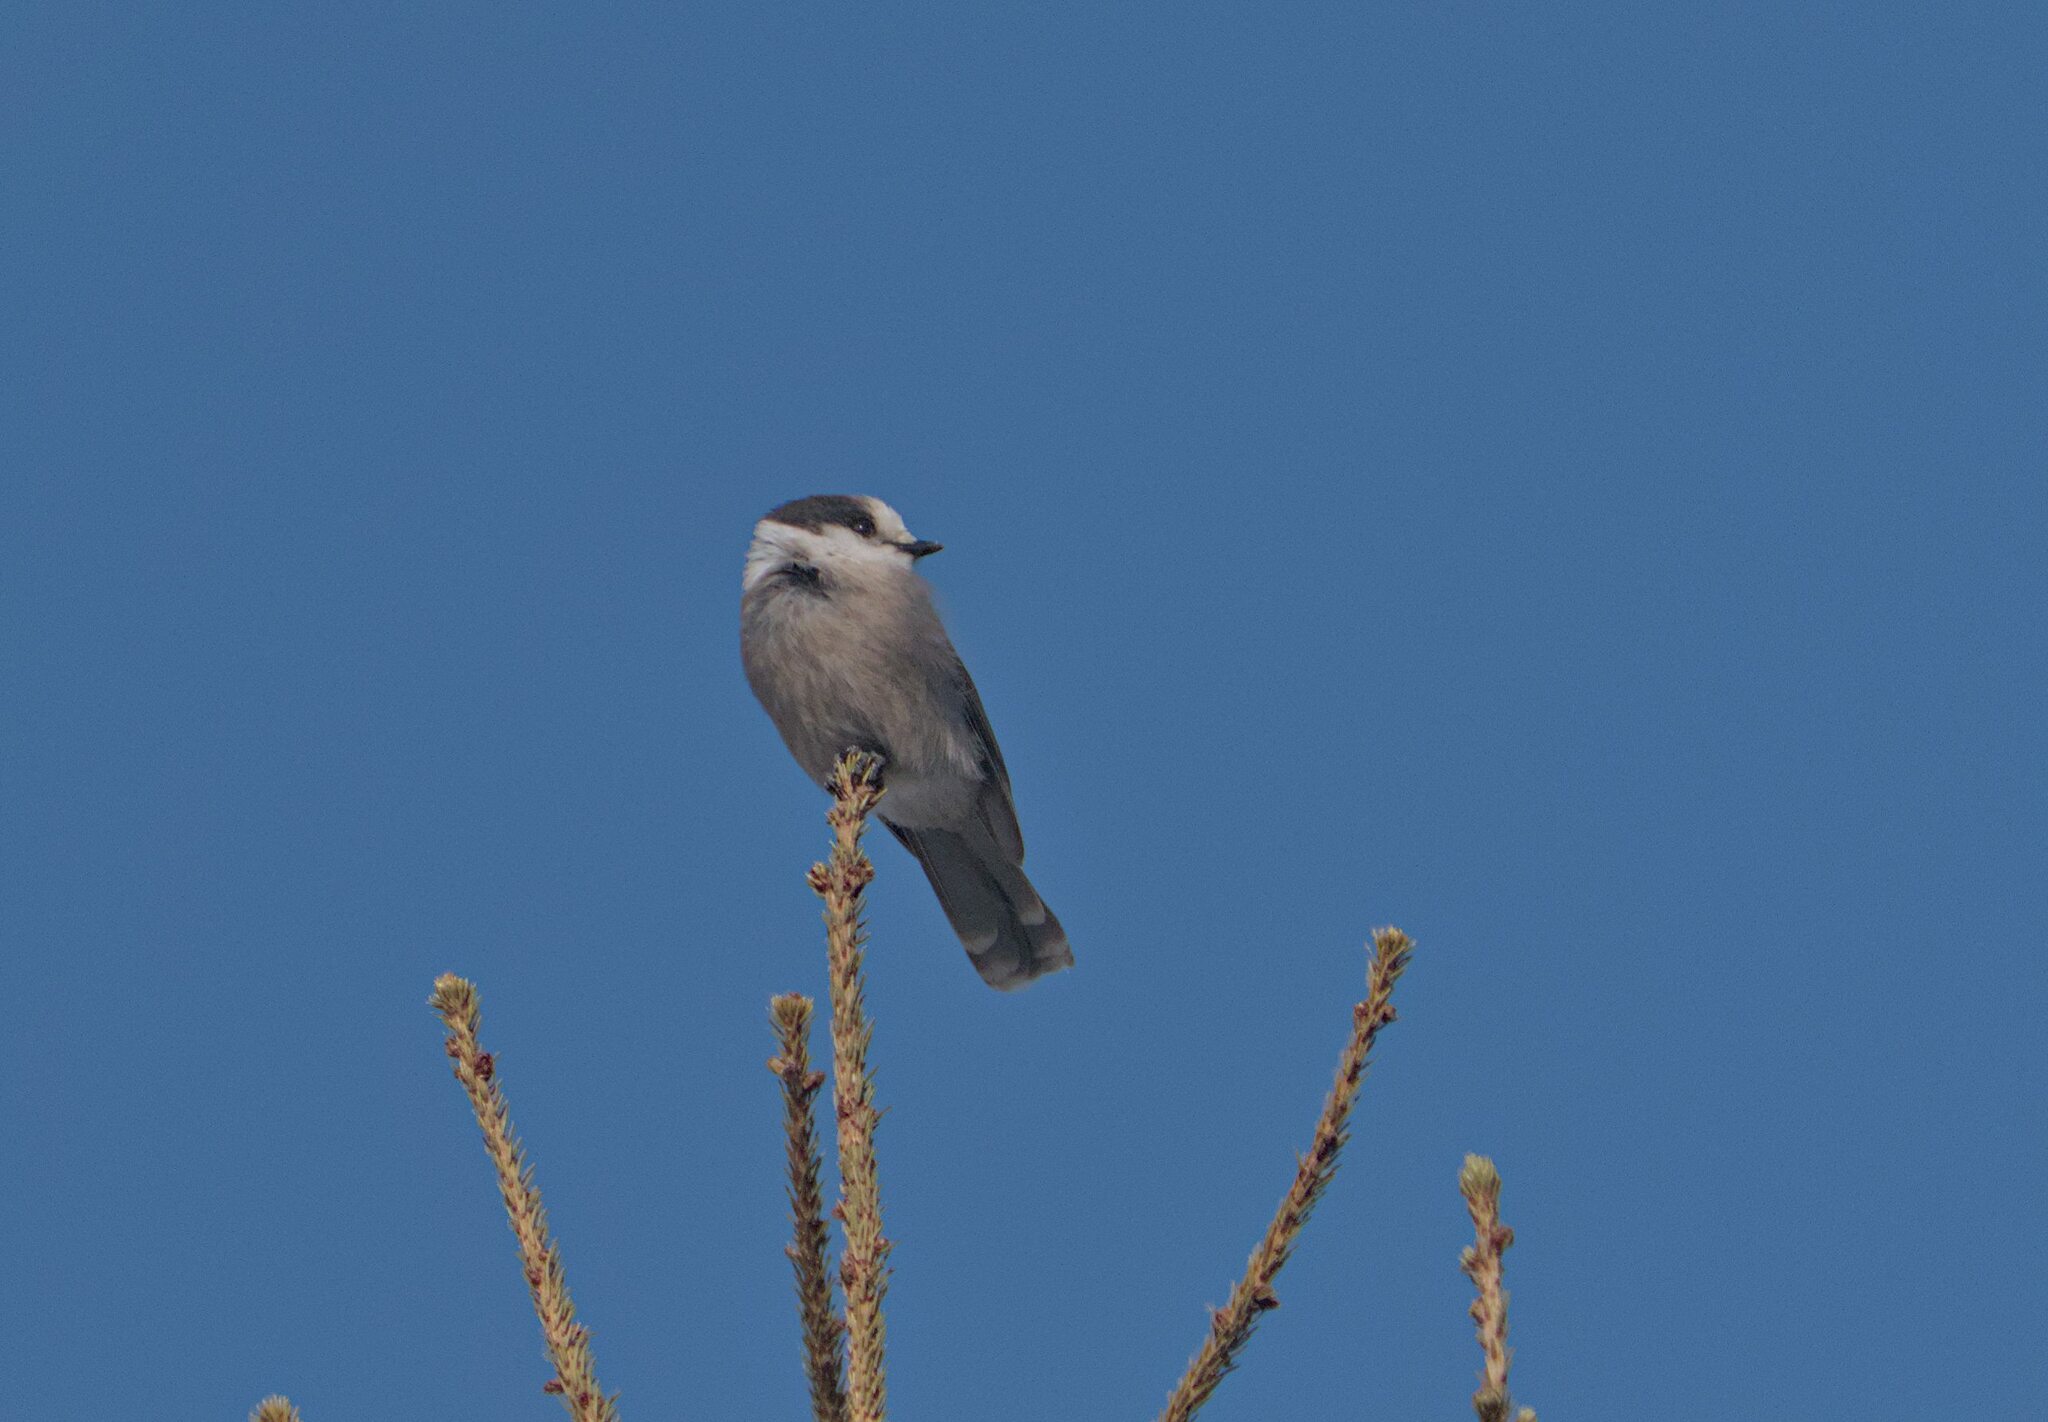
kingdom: Animalia
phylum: Chordata
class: Aves
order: Passeriformes
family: Corvidae
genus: Perisoreus
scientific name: Perisoreus canadensis
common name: Gray jay
